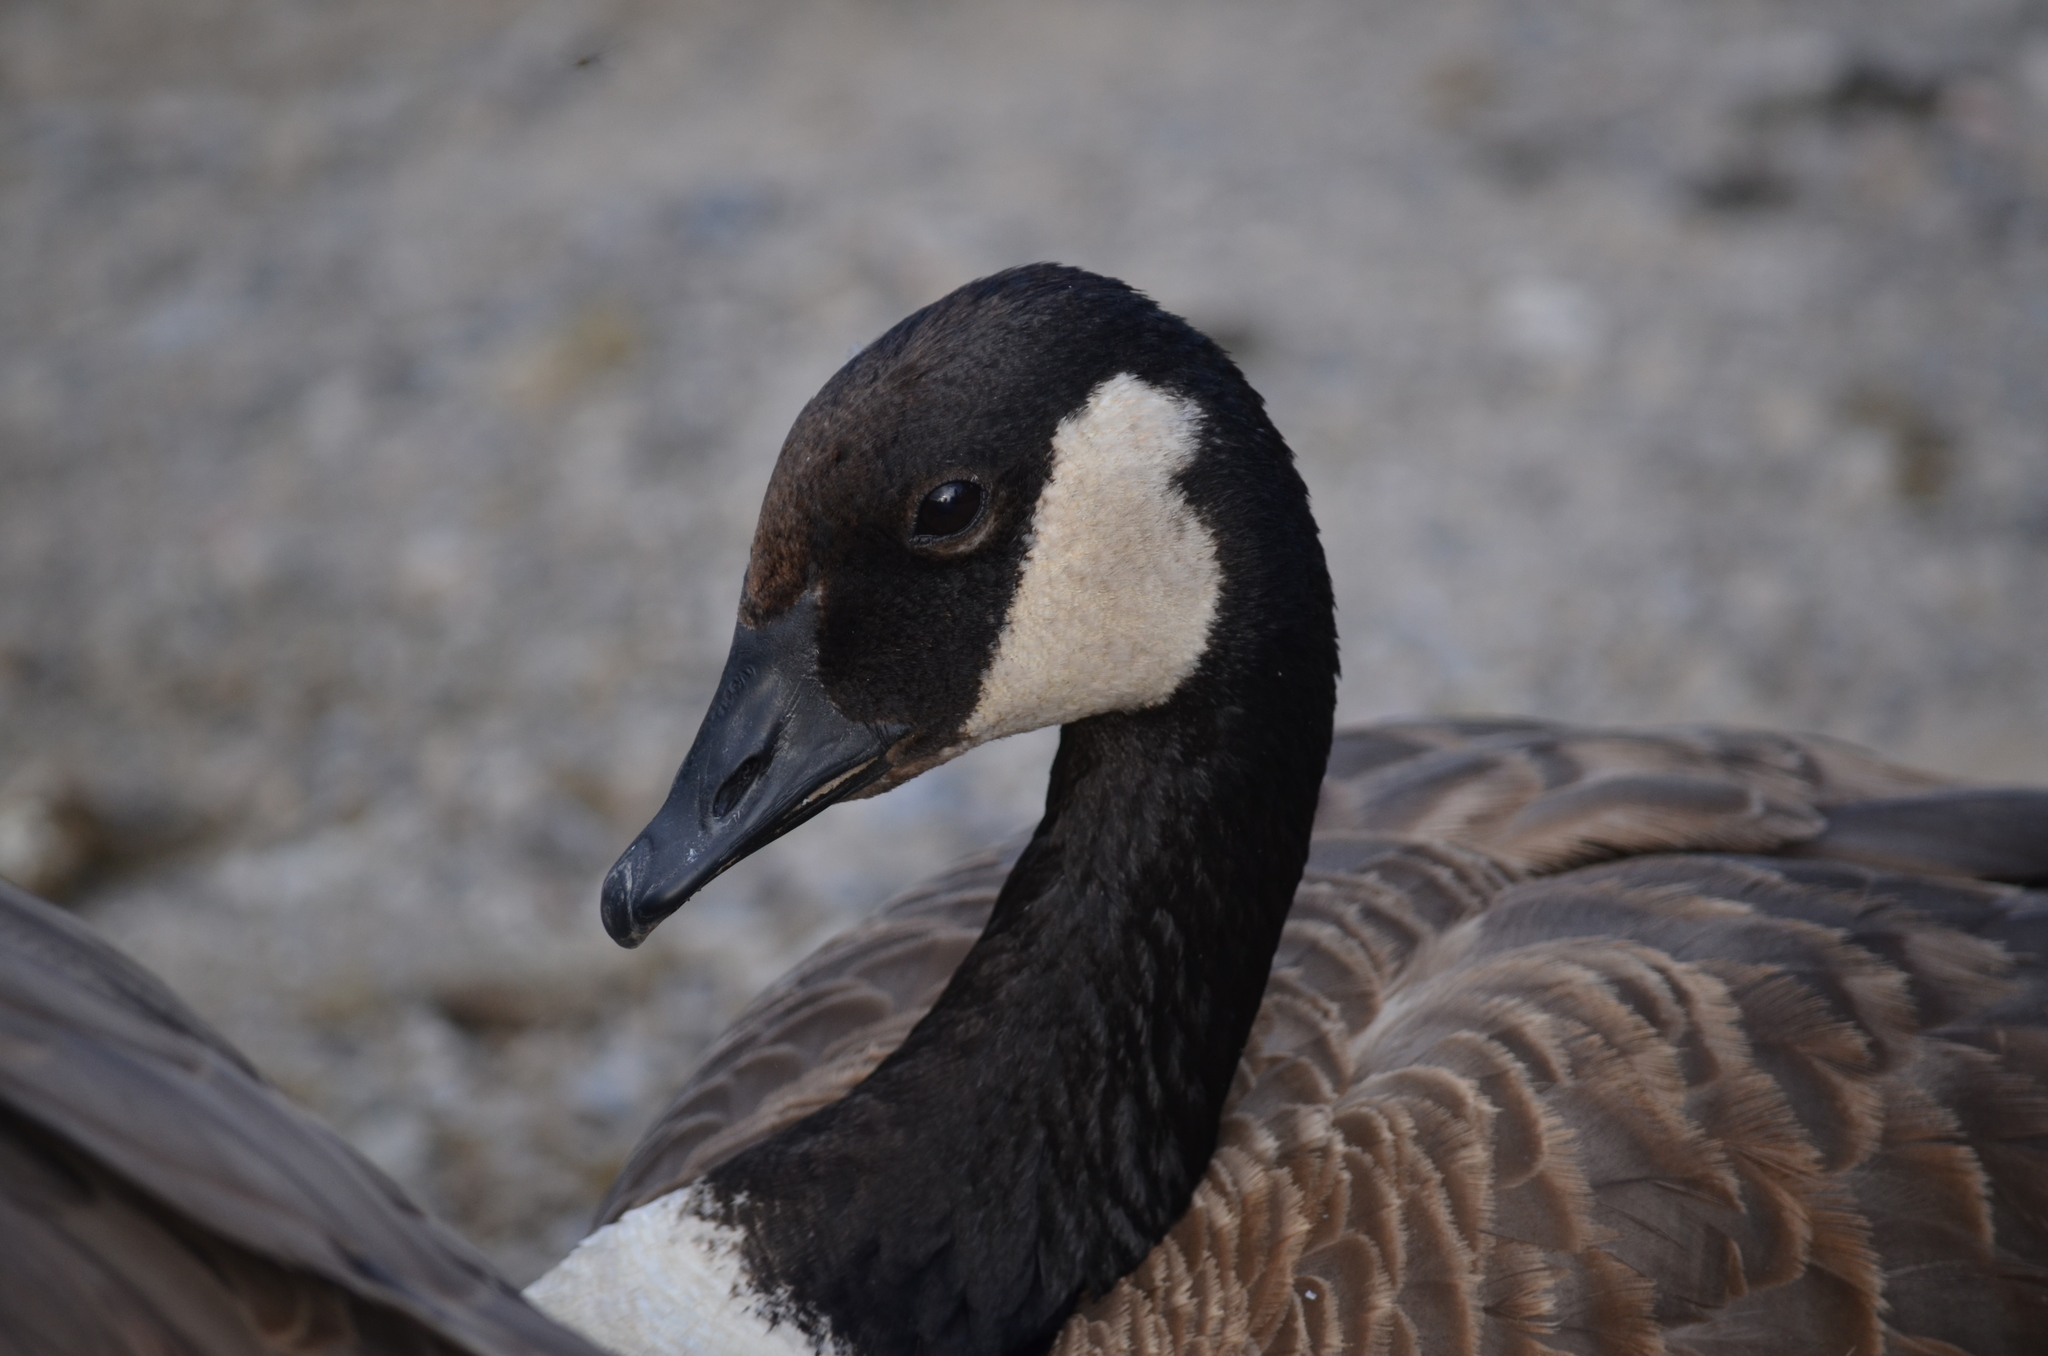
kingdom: Animalia
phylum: Chordata
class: Aves
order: Anseriformes
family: Anatidae
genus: Branta
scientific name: Branta canadensis
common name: Canada goose
